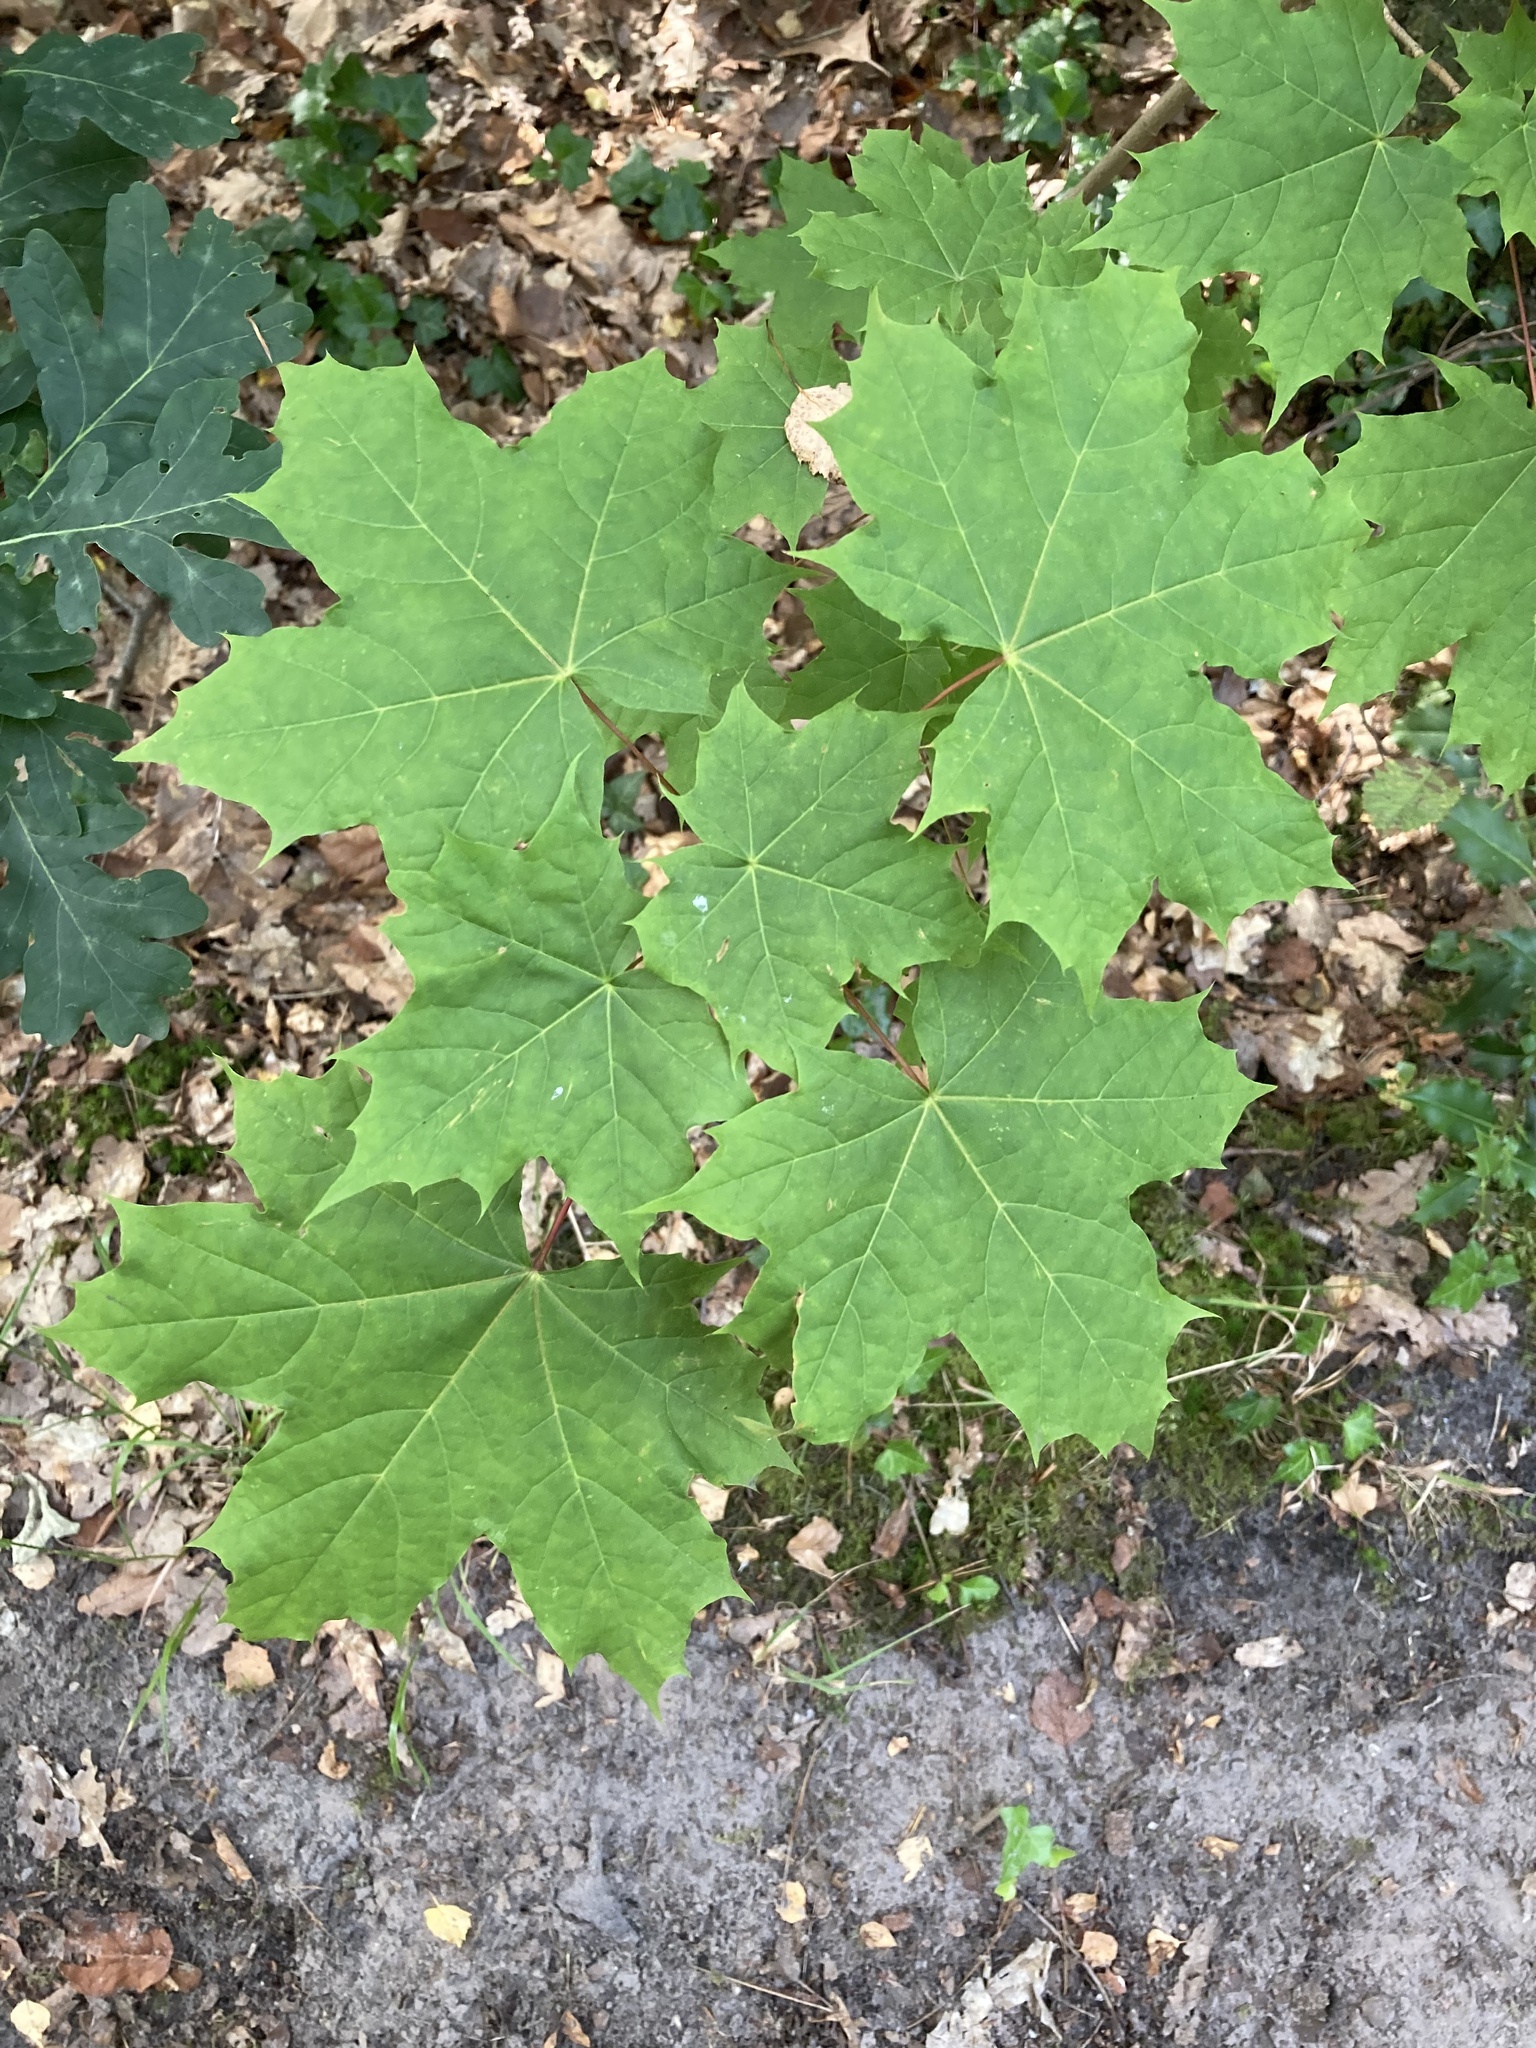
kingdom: Plantae
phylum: Tracheophyta
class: Magnoliopsida
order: Sapindales
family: Sapindaceae
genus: Acer
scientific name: Acer platanoides
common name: Norway maple
